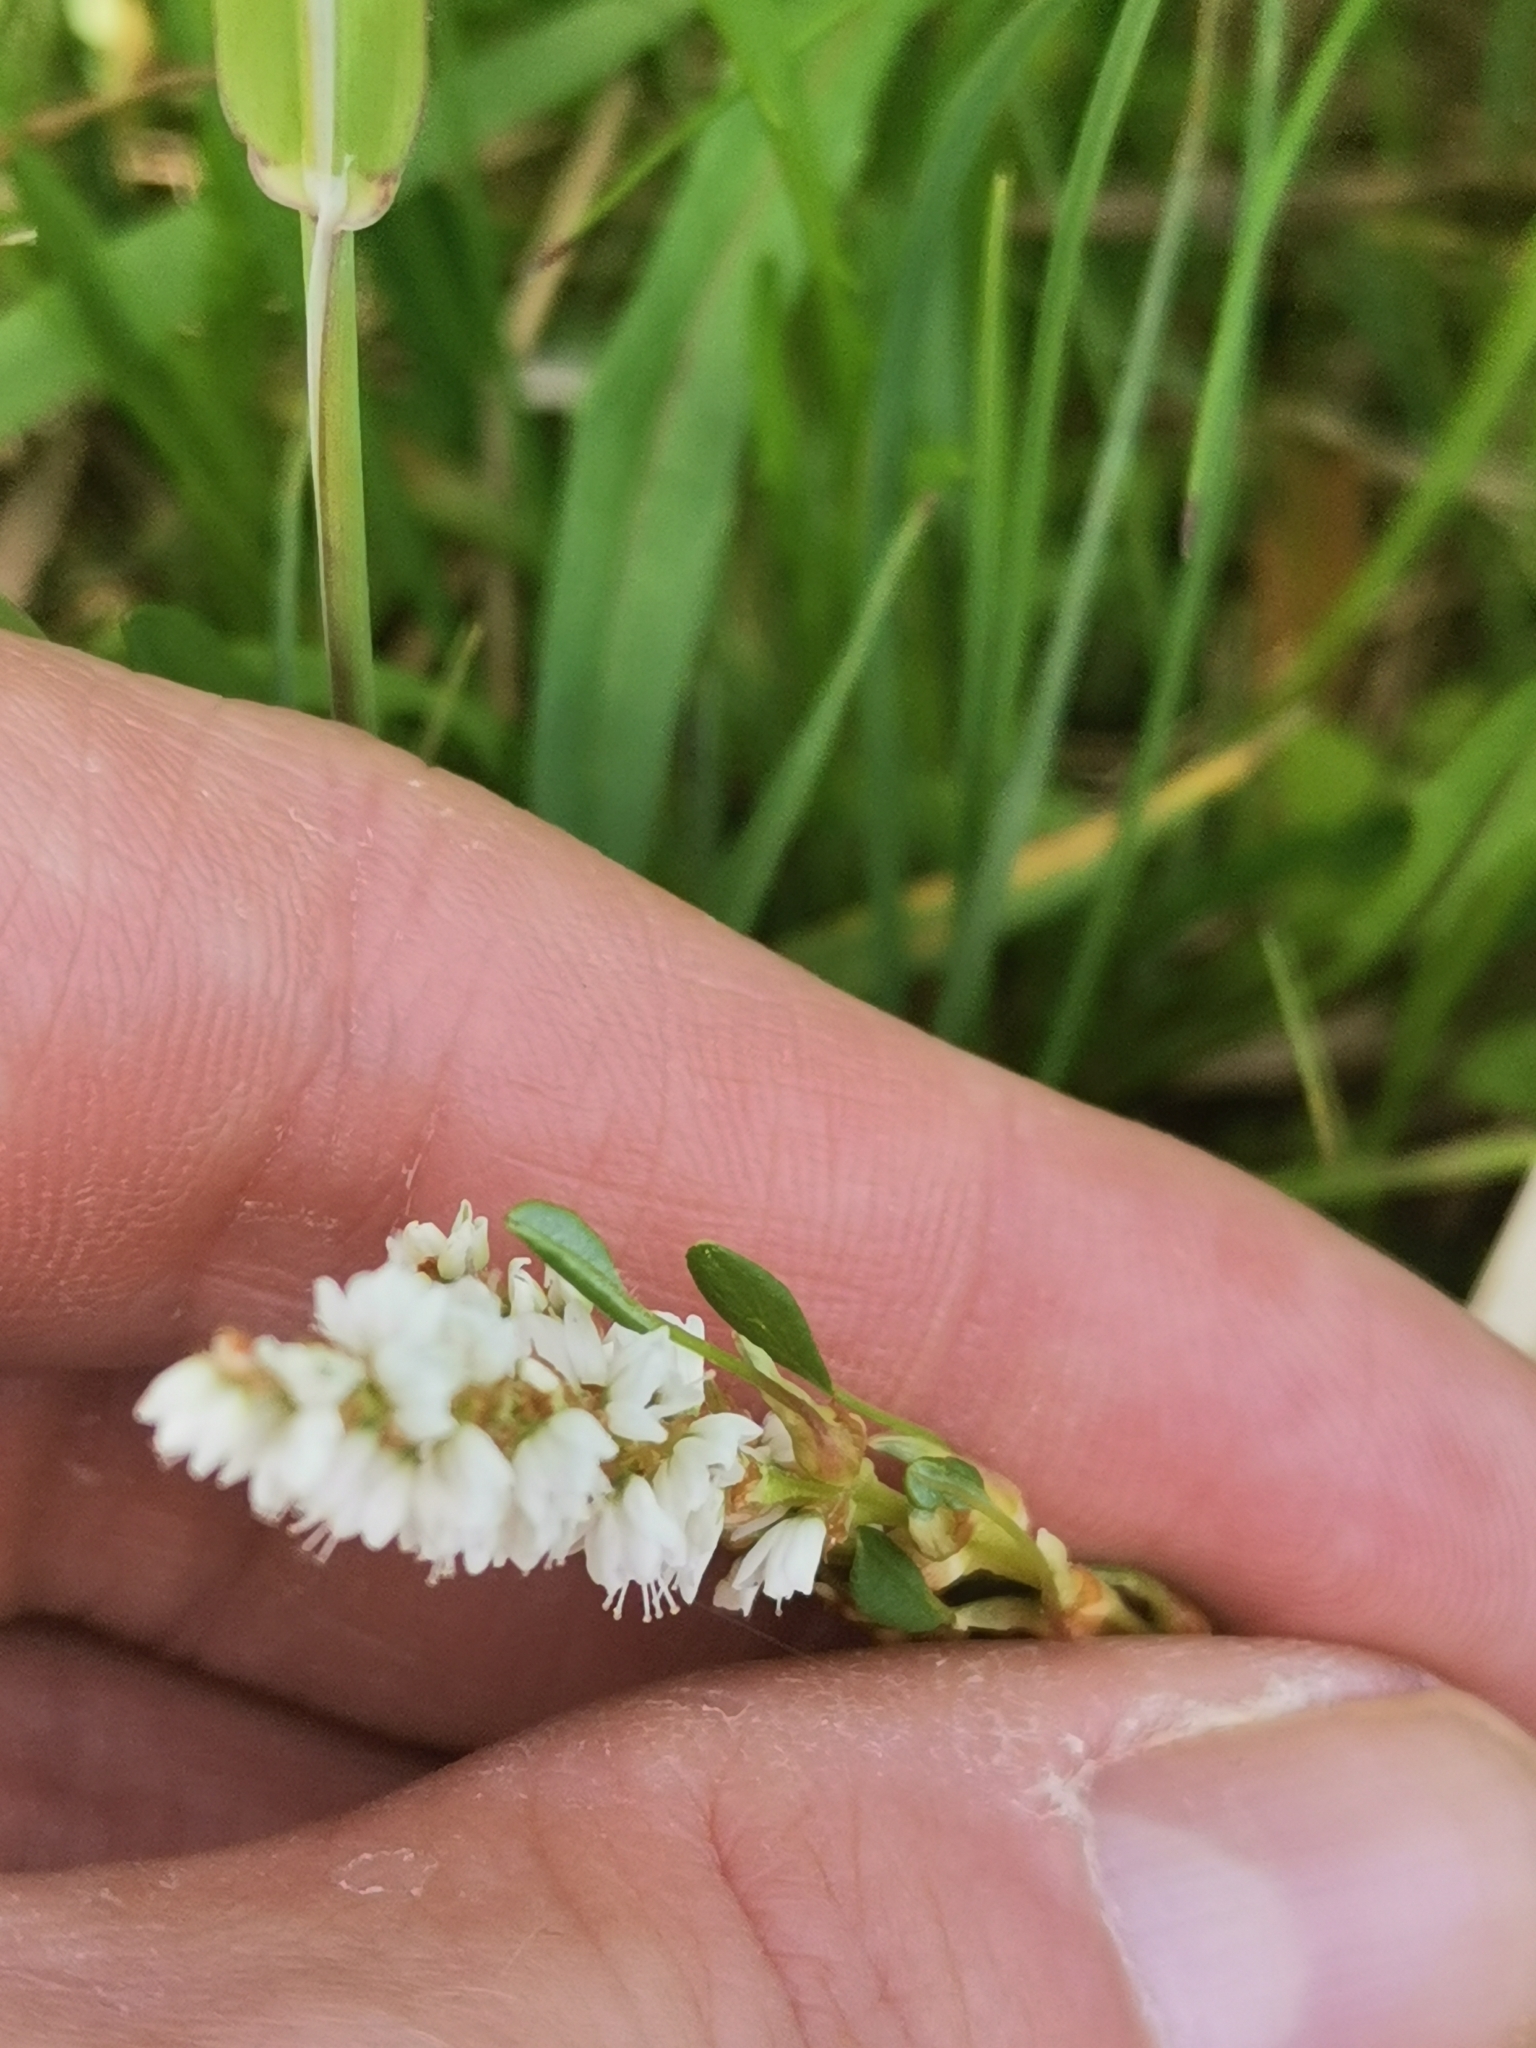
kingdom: Plantae
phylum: Tracheophyta
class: Magnoliopsida
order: Caryophyllales
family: Polygonaceae
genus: Bistorta
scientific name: Bistorta vivipara
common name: Alpine bistort
